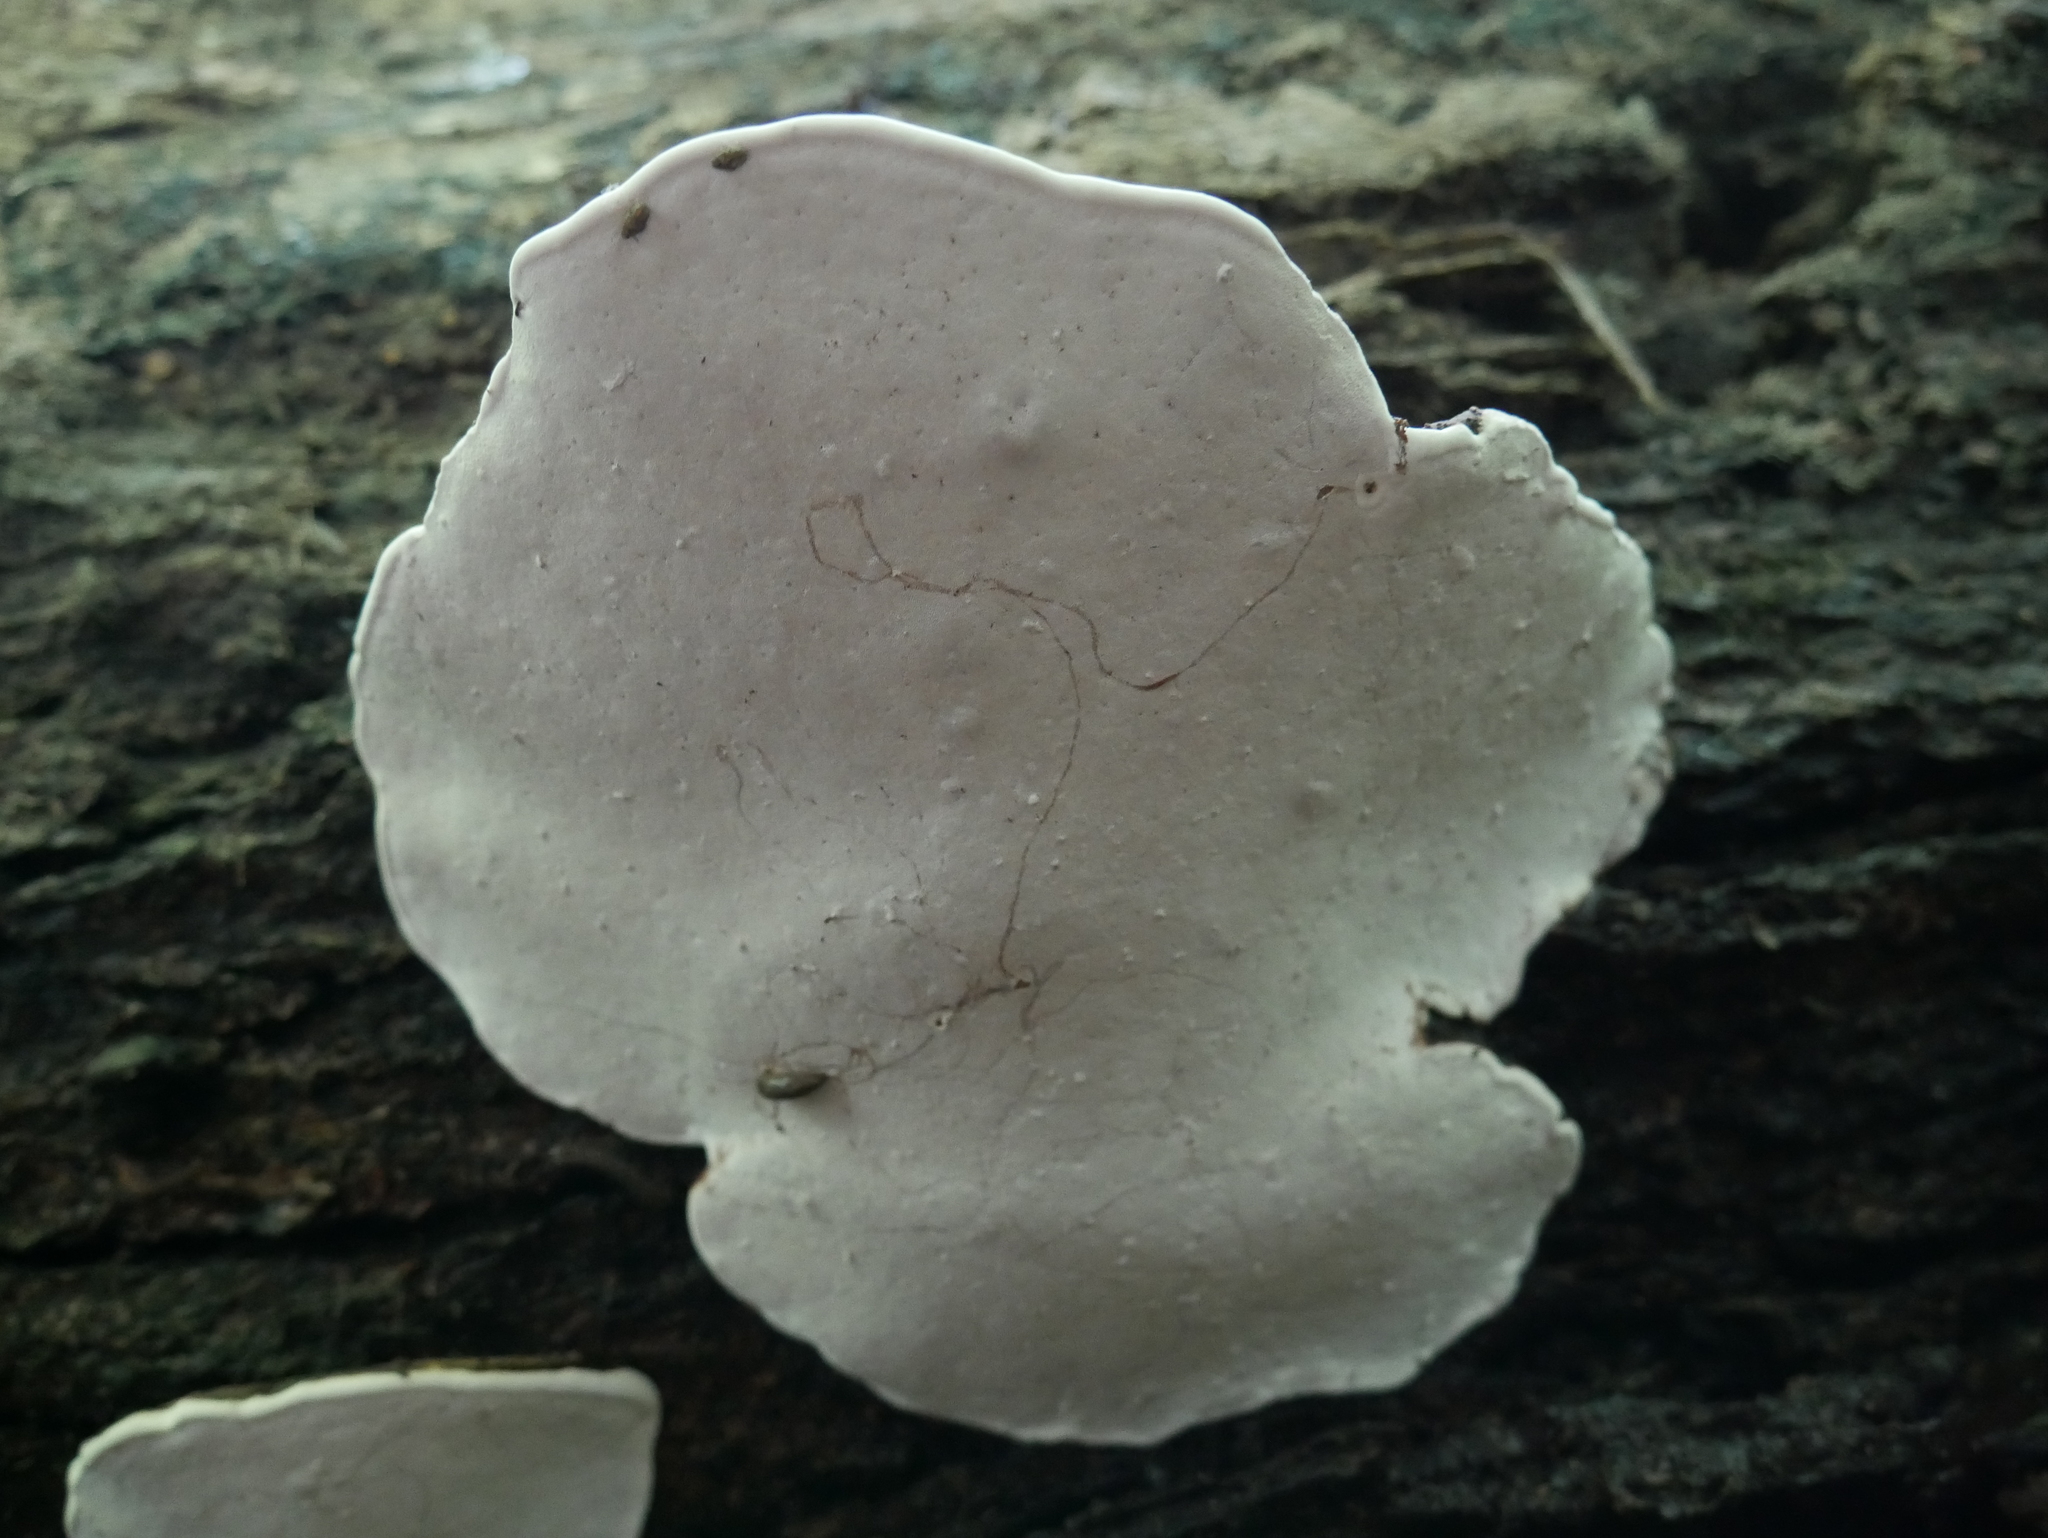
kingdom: Fungi
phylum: Basidiomycota
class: Agaricomycetes
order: Polyporales
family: Polyporaceae
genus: Ganoderma
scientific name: Ganoderma applanatum
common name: Artist's bracket
